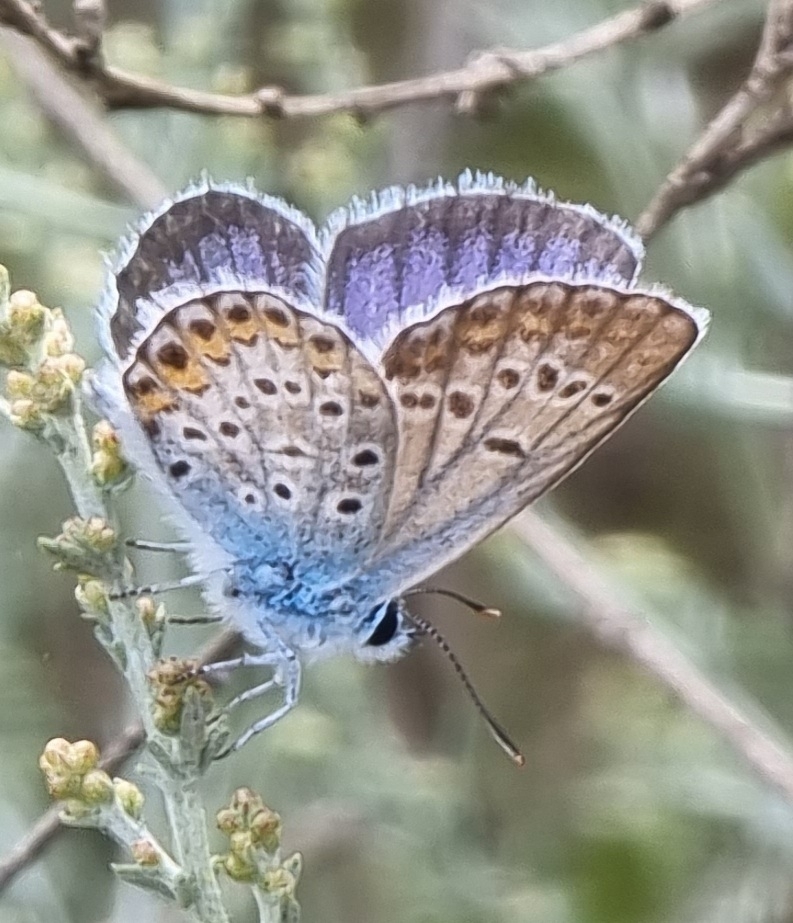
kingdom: Animalia
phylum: Arthropoda
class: Insecta
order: Lepidoptera
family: Lycaenidae
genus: Plebejus
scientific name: Plebejus argus
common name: Silver-studded blue
